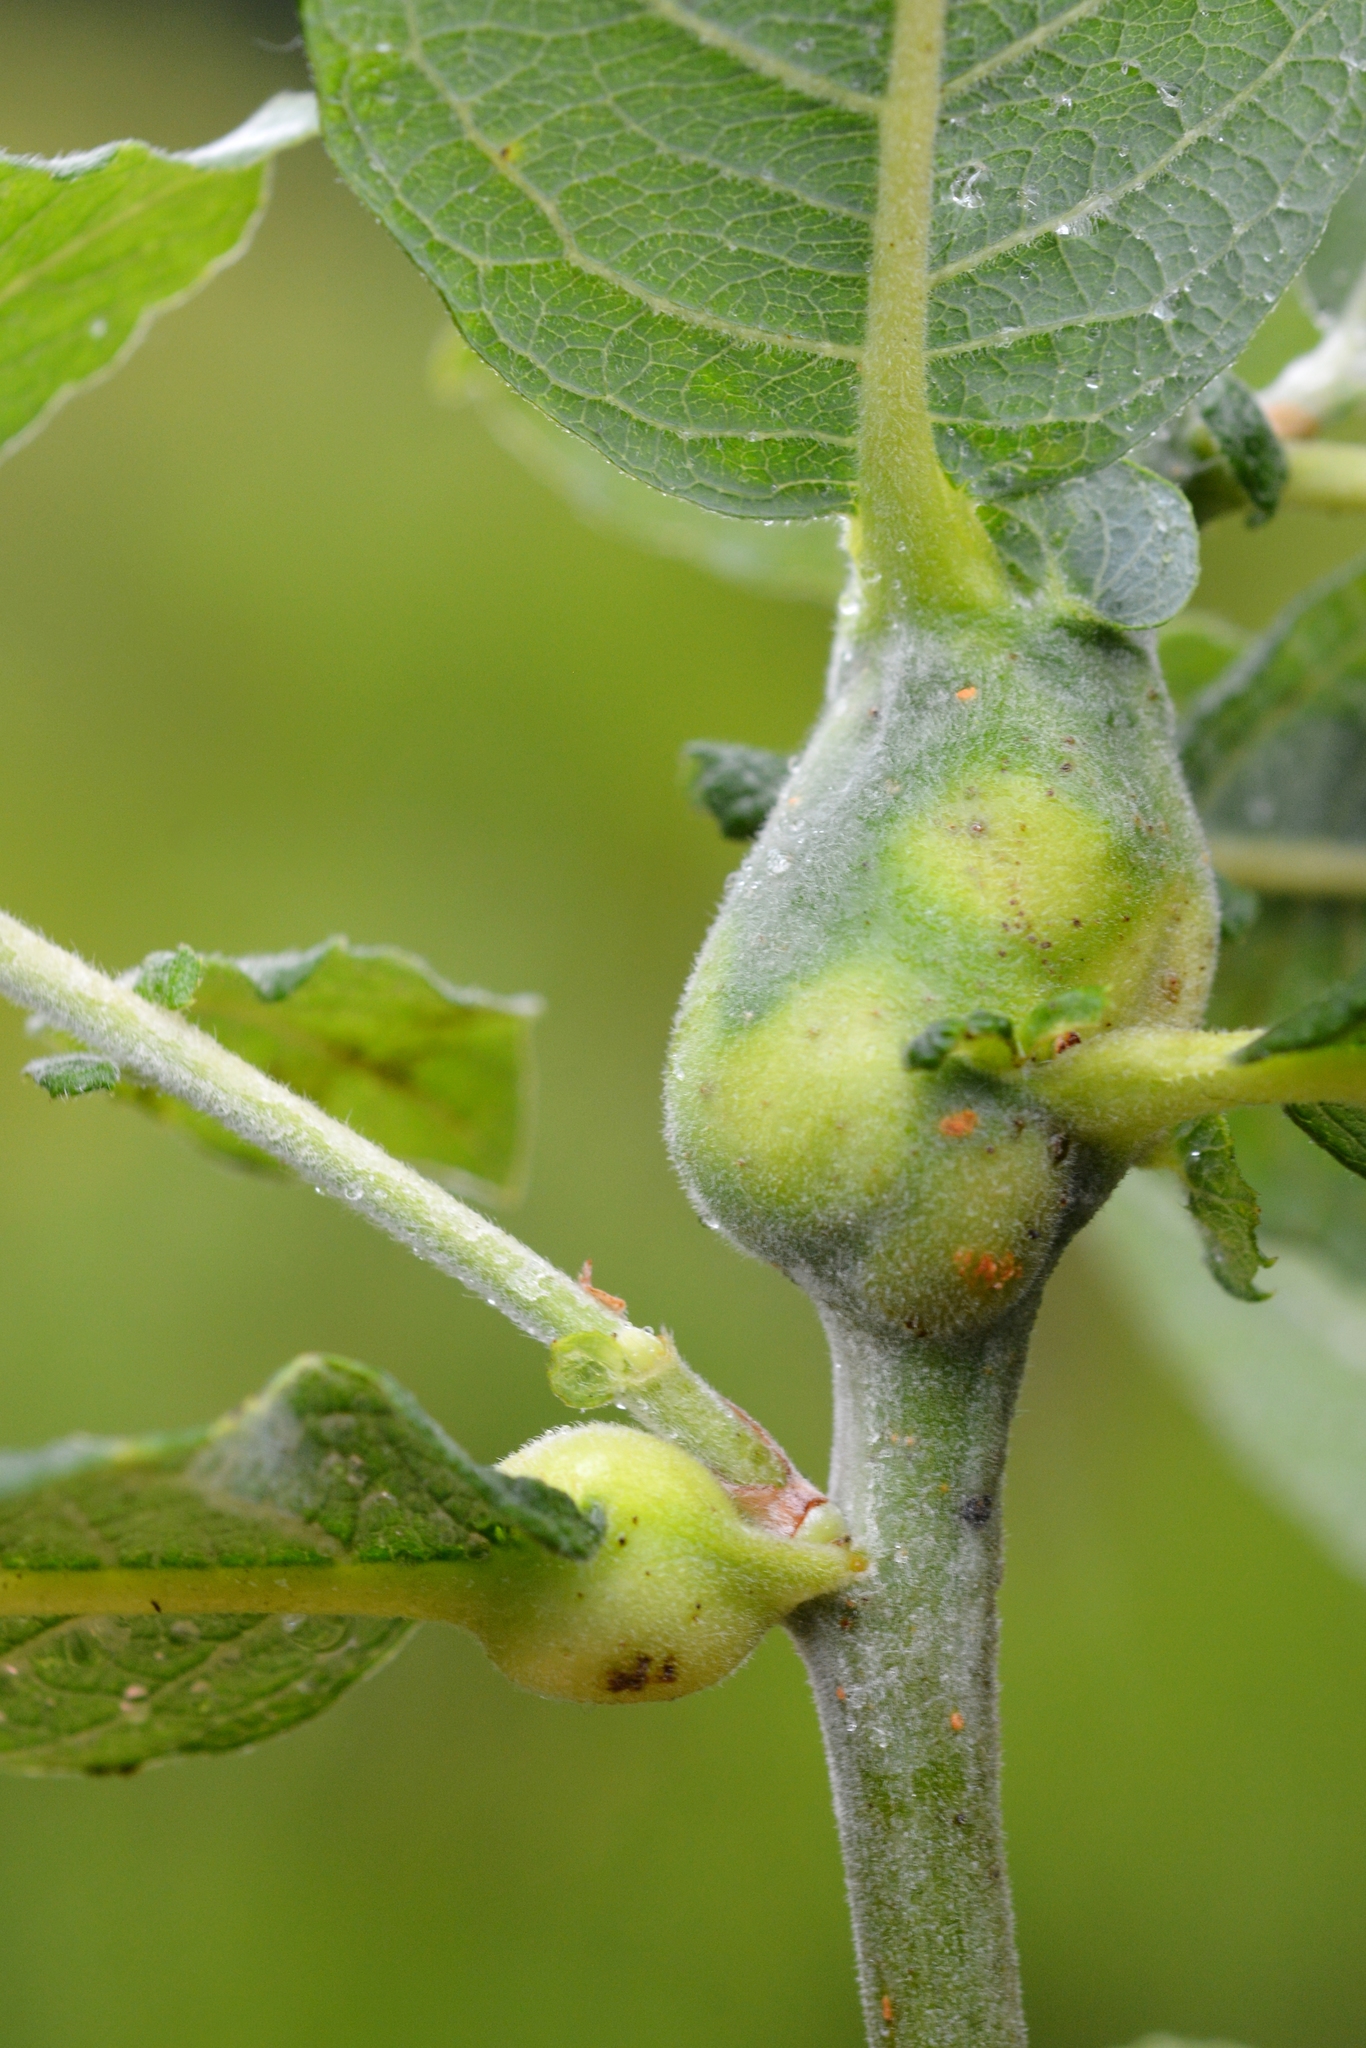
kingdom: Animalia
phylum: Arthropoda
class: Insecta
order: Diptera
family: Cecidomyiidae
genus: Rabdophaga
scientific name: Rabdophaga salicis
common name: Willow twig gall midge
